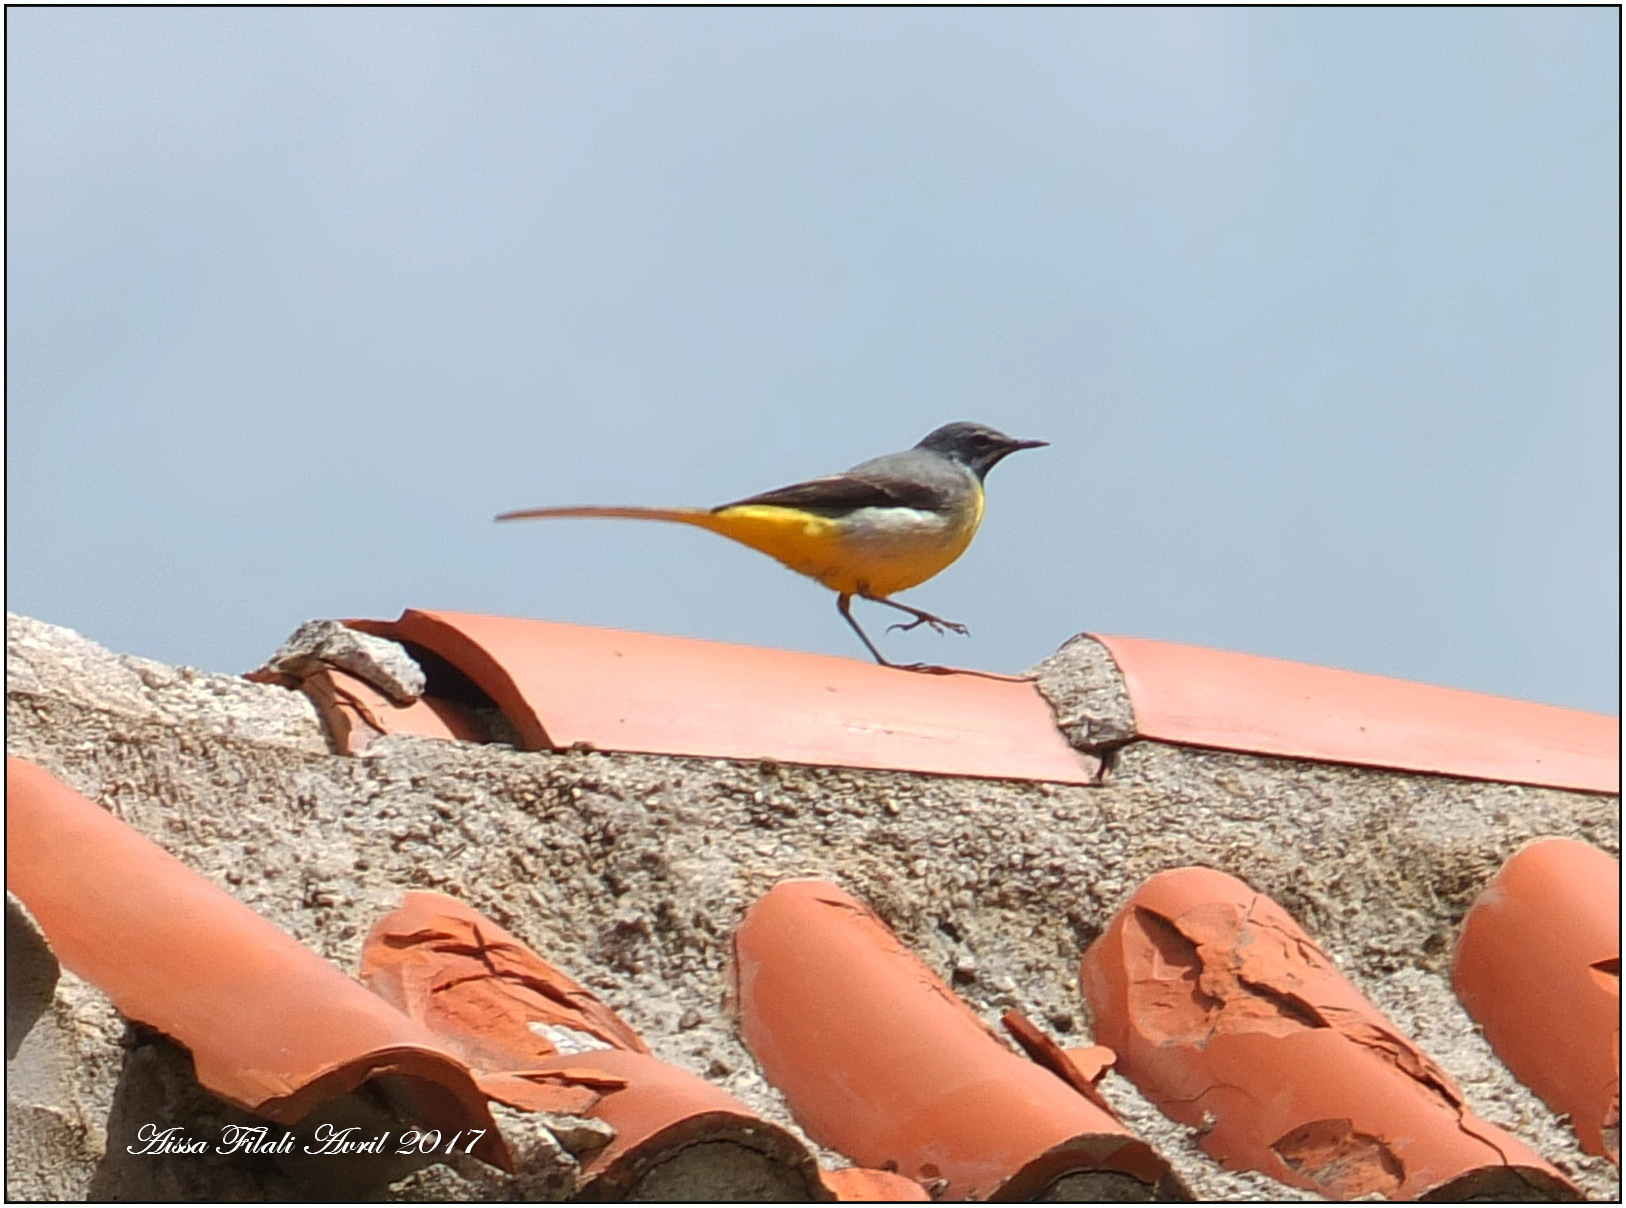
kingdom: Animalia
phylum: Chordata
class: Aves
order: Passeriformes
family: Motacillidae
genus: Motacilla
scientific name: Motacilla cinerea
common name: Grey wagtail
